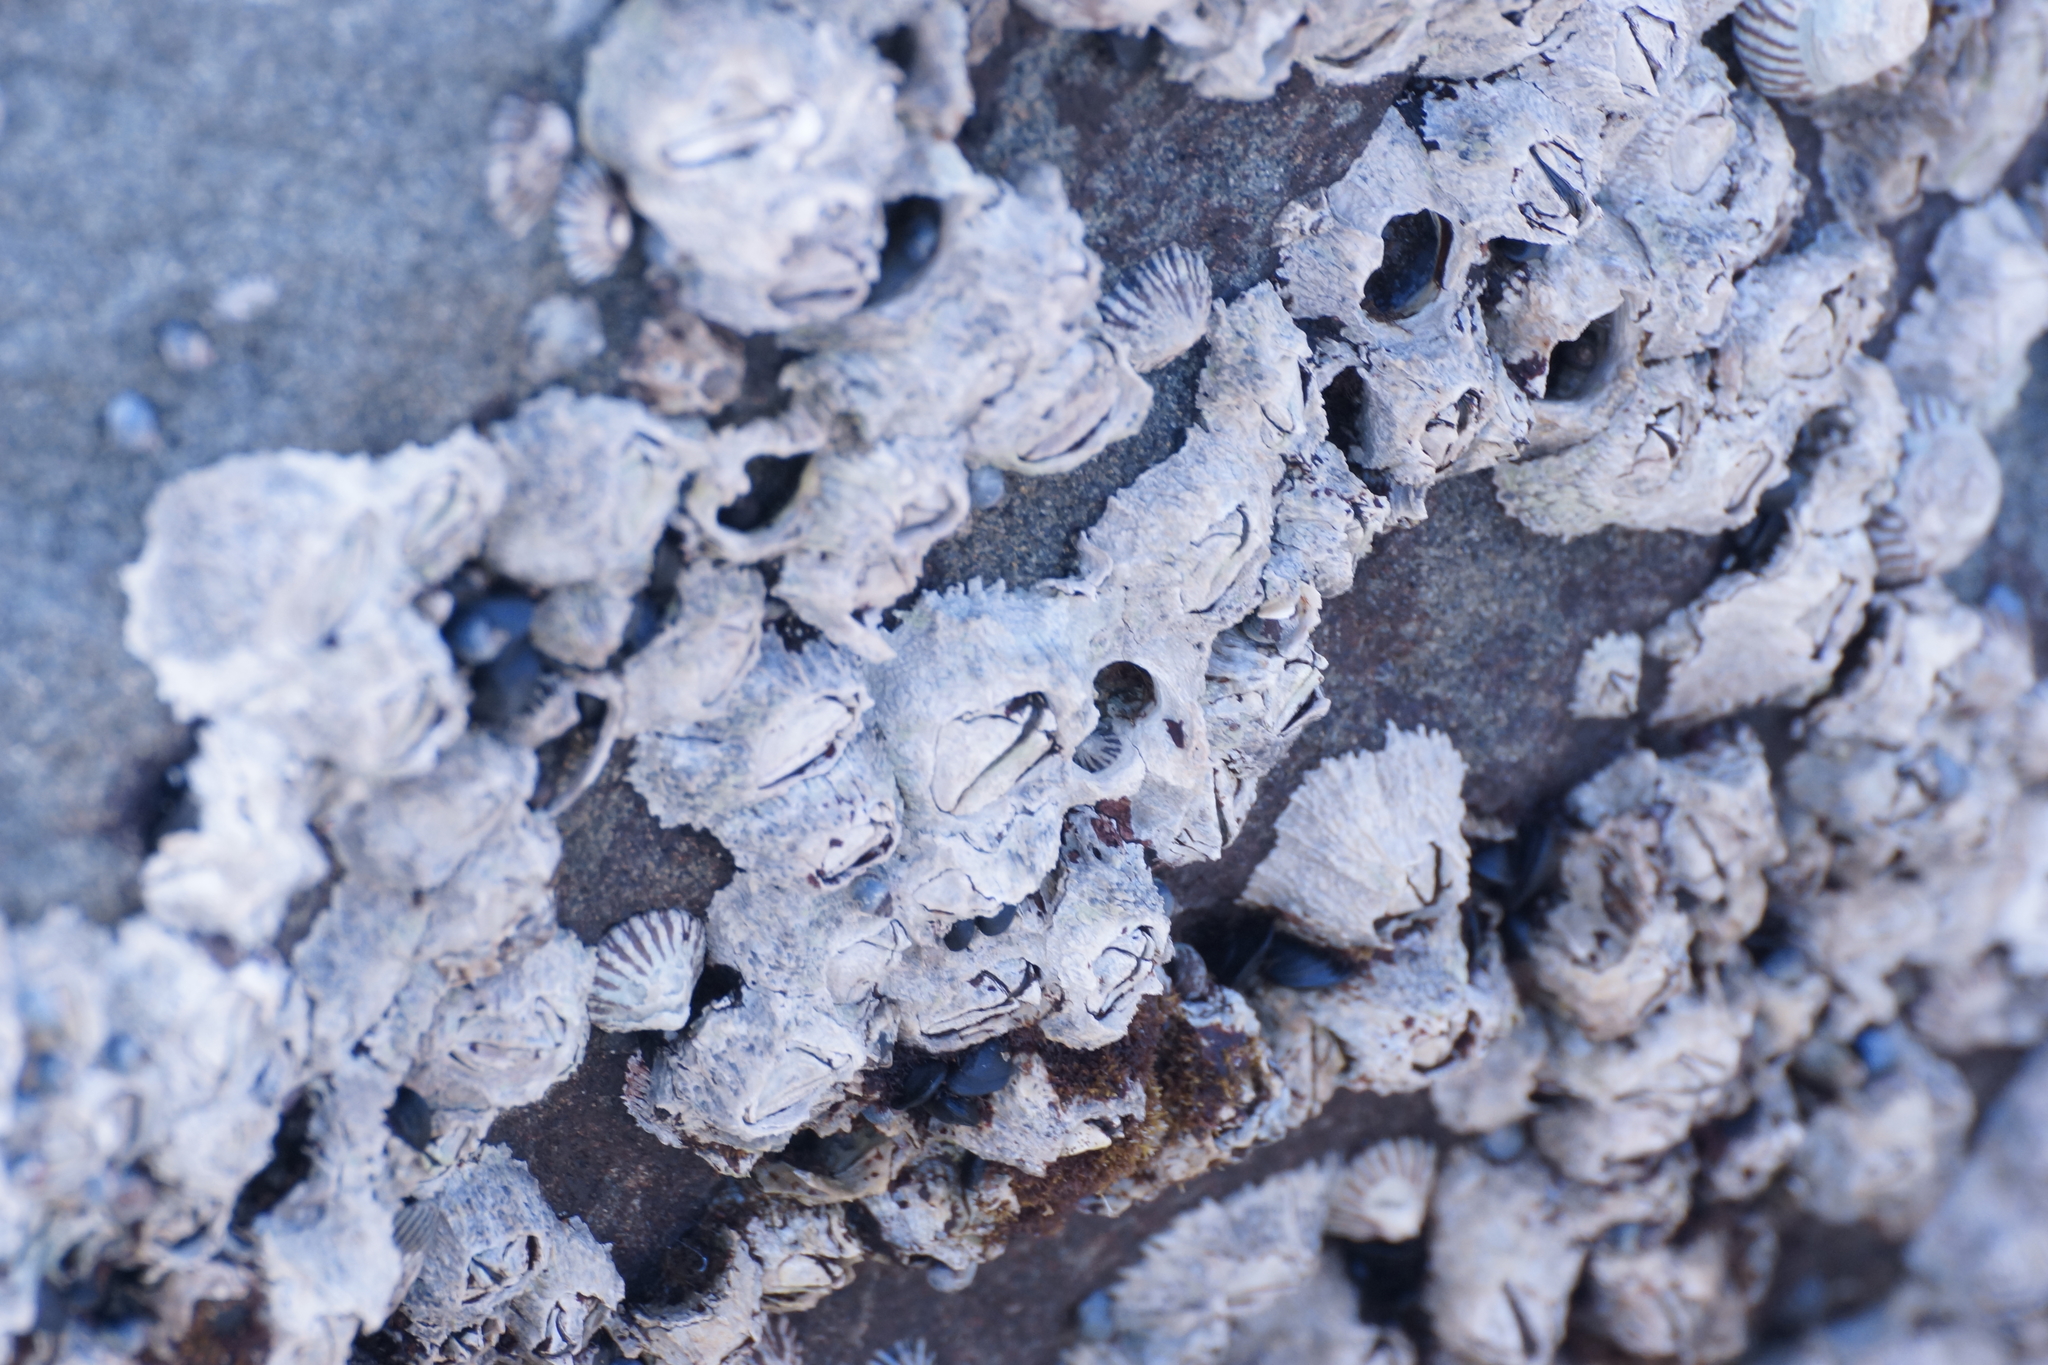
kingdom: Animalia
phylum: Arthropoda
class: Maxillopoda
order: Sessilia
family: Tetraclitidae
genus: Tetraclitella
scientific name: Tetraclitella purpurascens
